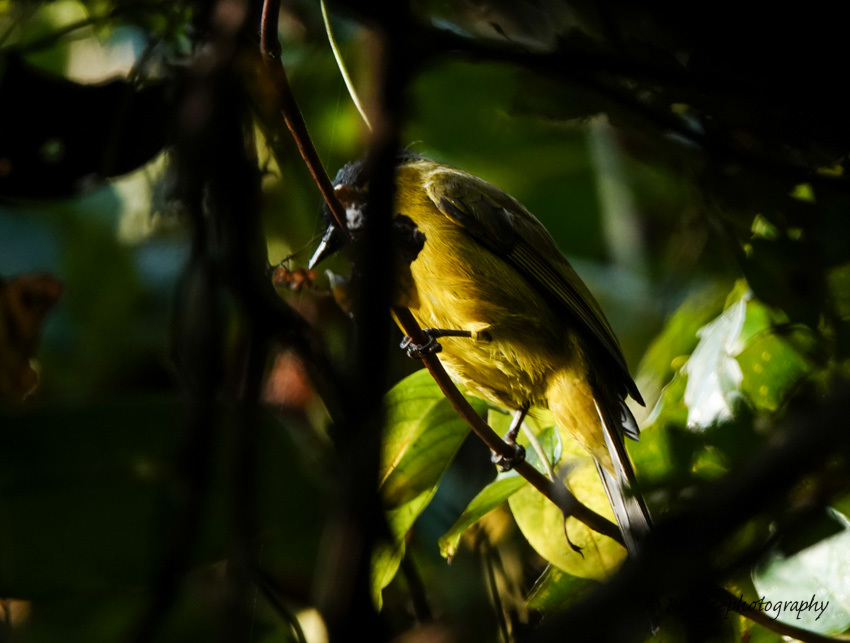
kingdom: Animalia
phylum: Chordata
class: Aves
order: Passeriformes
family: Pycnonotidae
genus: Pycnonotus
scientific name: Pycnonotus flaviventris
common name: Black-crested bulbul
